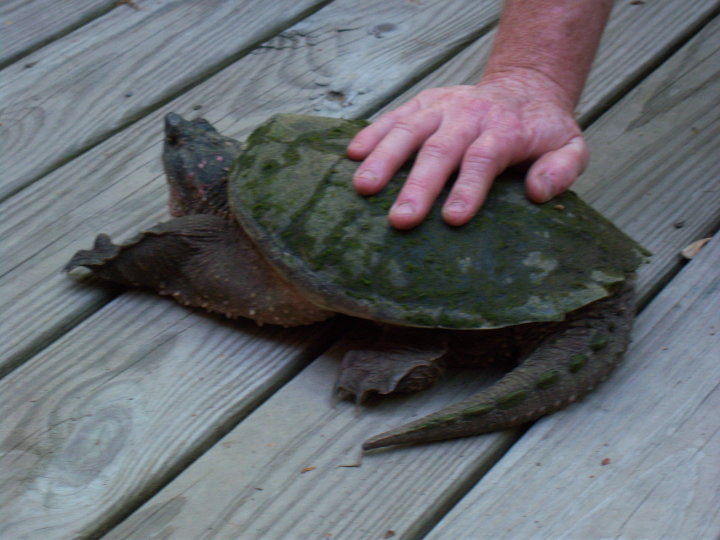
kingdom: Animalia
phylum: Chordata
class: Testudines
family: Chelydridae
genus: Chelydra
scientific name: Chelydra serpentina
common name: Common snapping turtle
